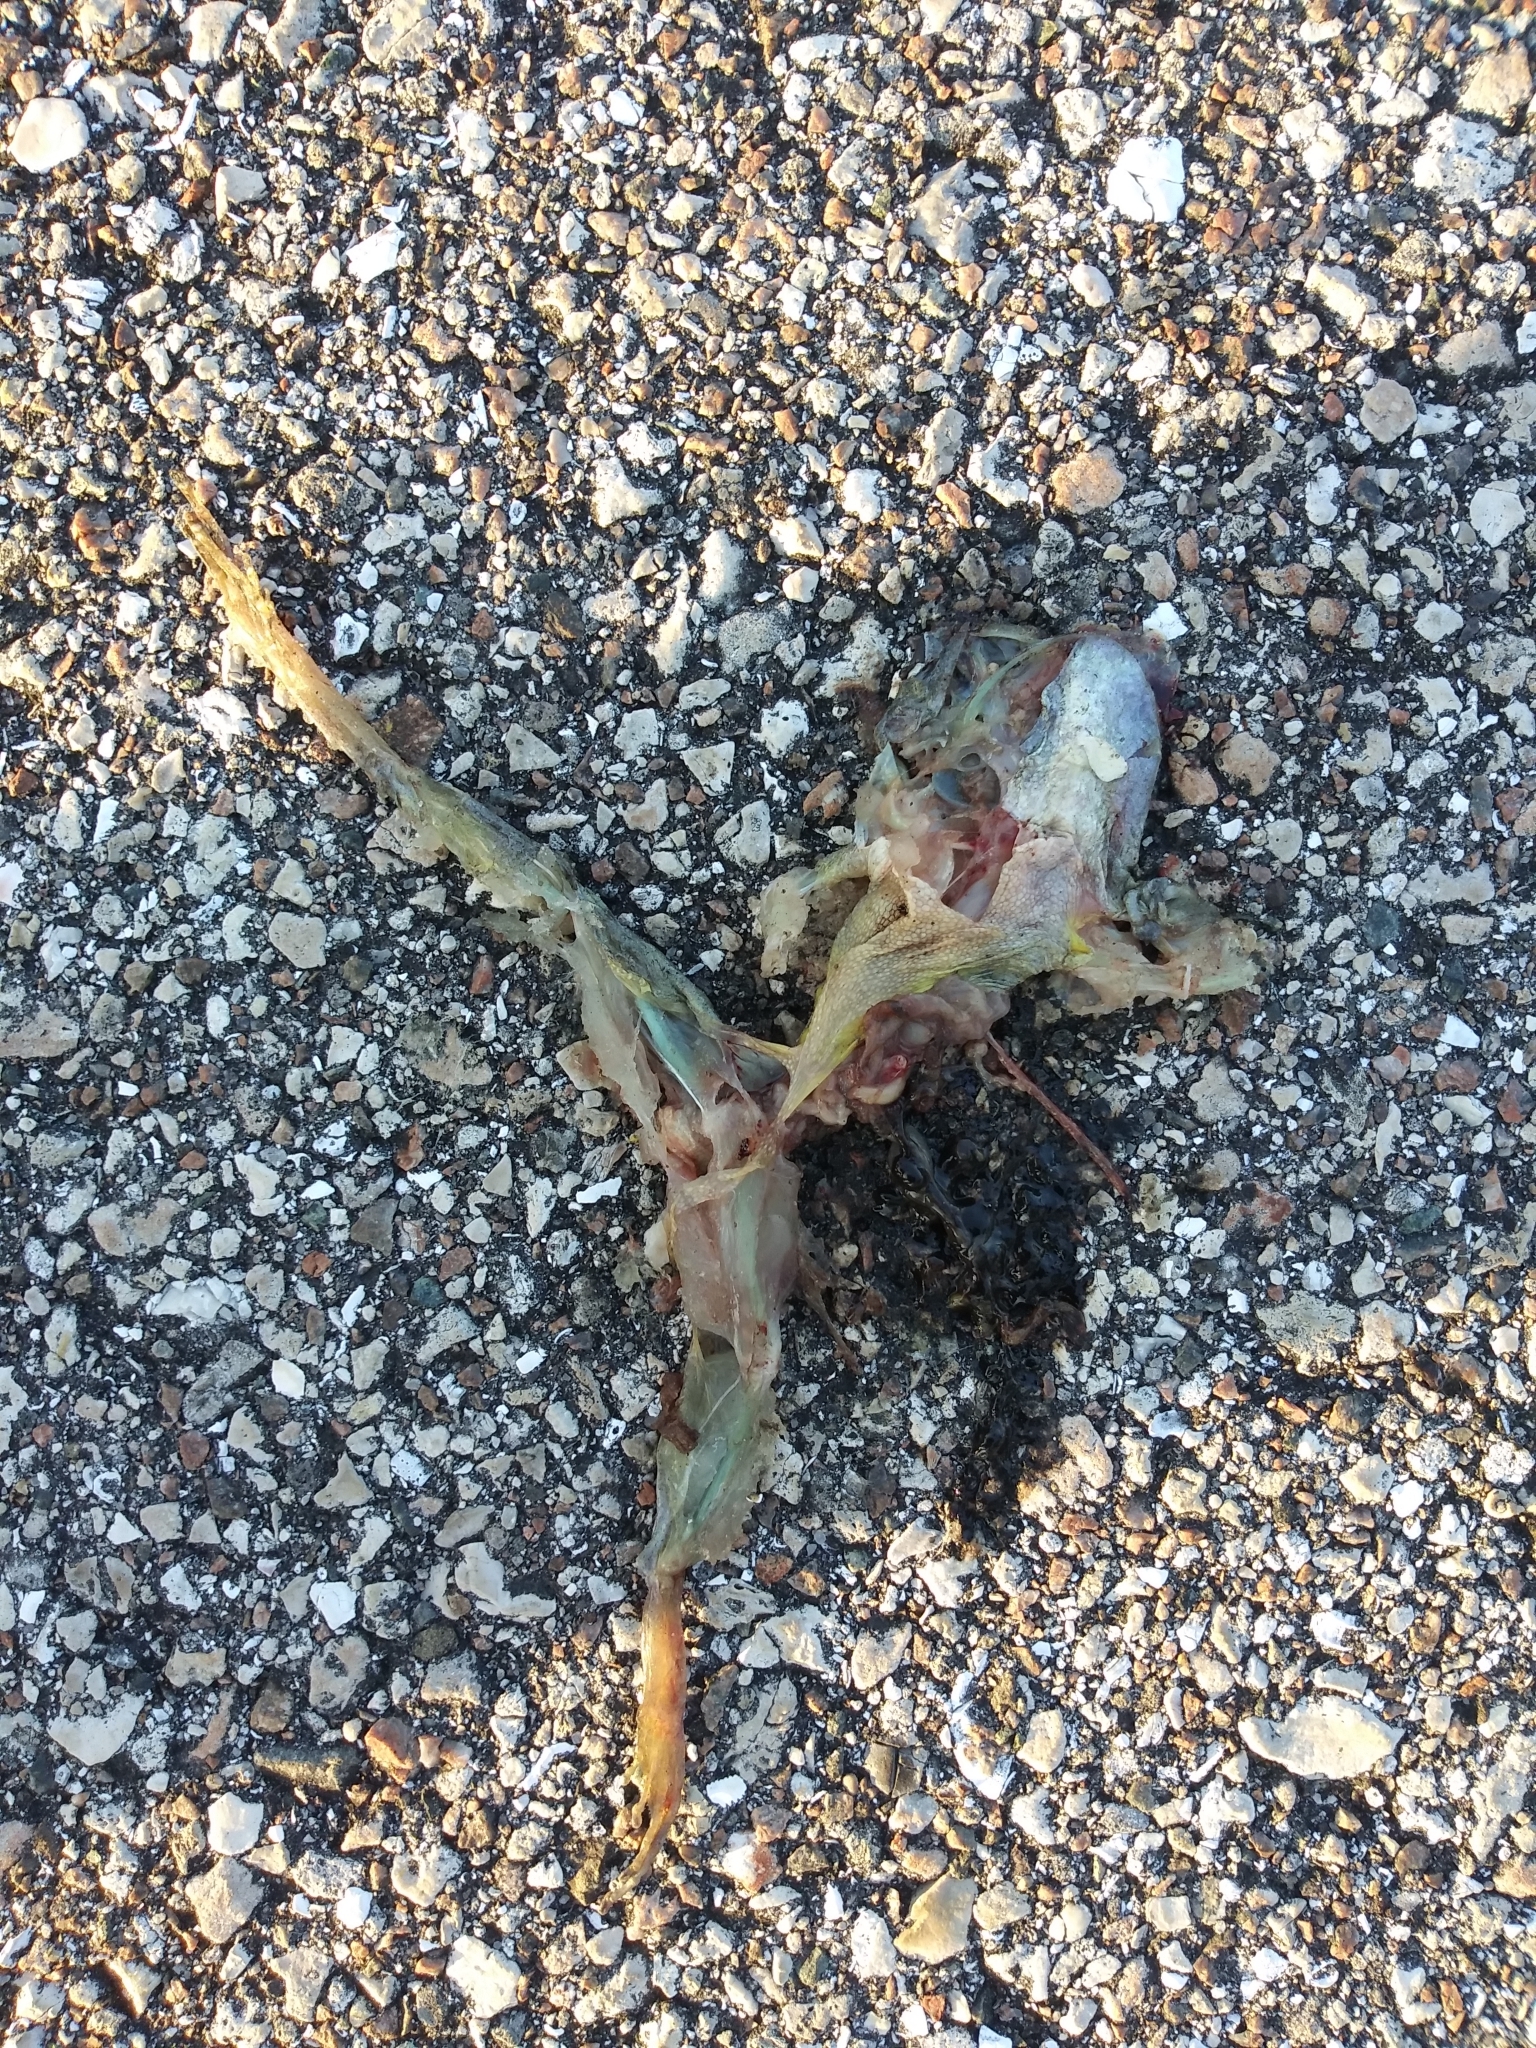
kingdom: Animalia
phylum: Chordata
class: Amphibia
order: Anura
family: Hylidae
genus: Osteopilus
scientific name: Osteopilus septentrionalis
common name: Cuban treefrog
